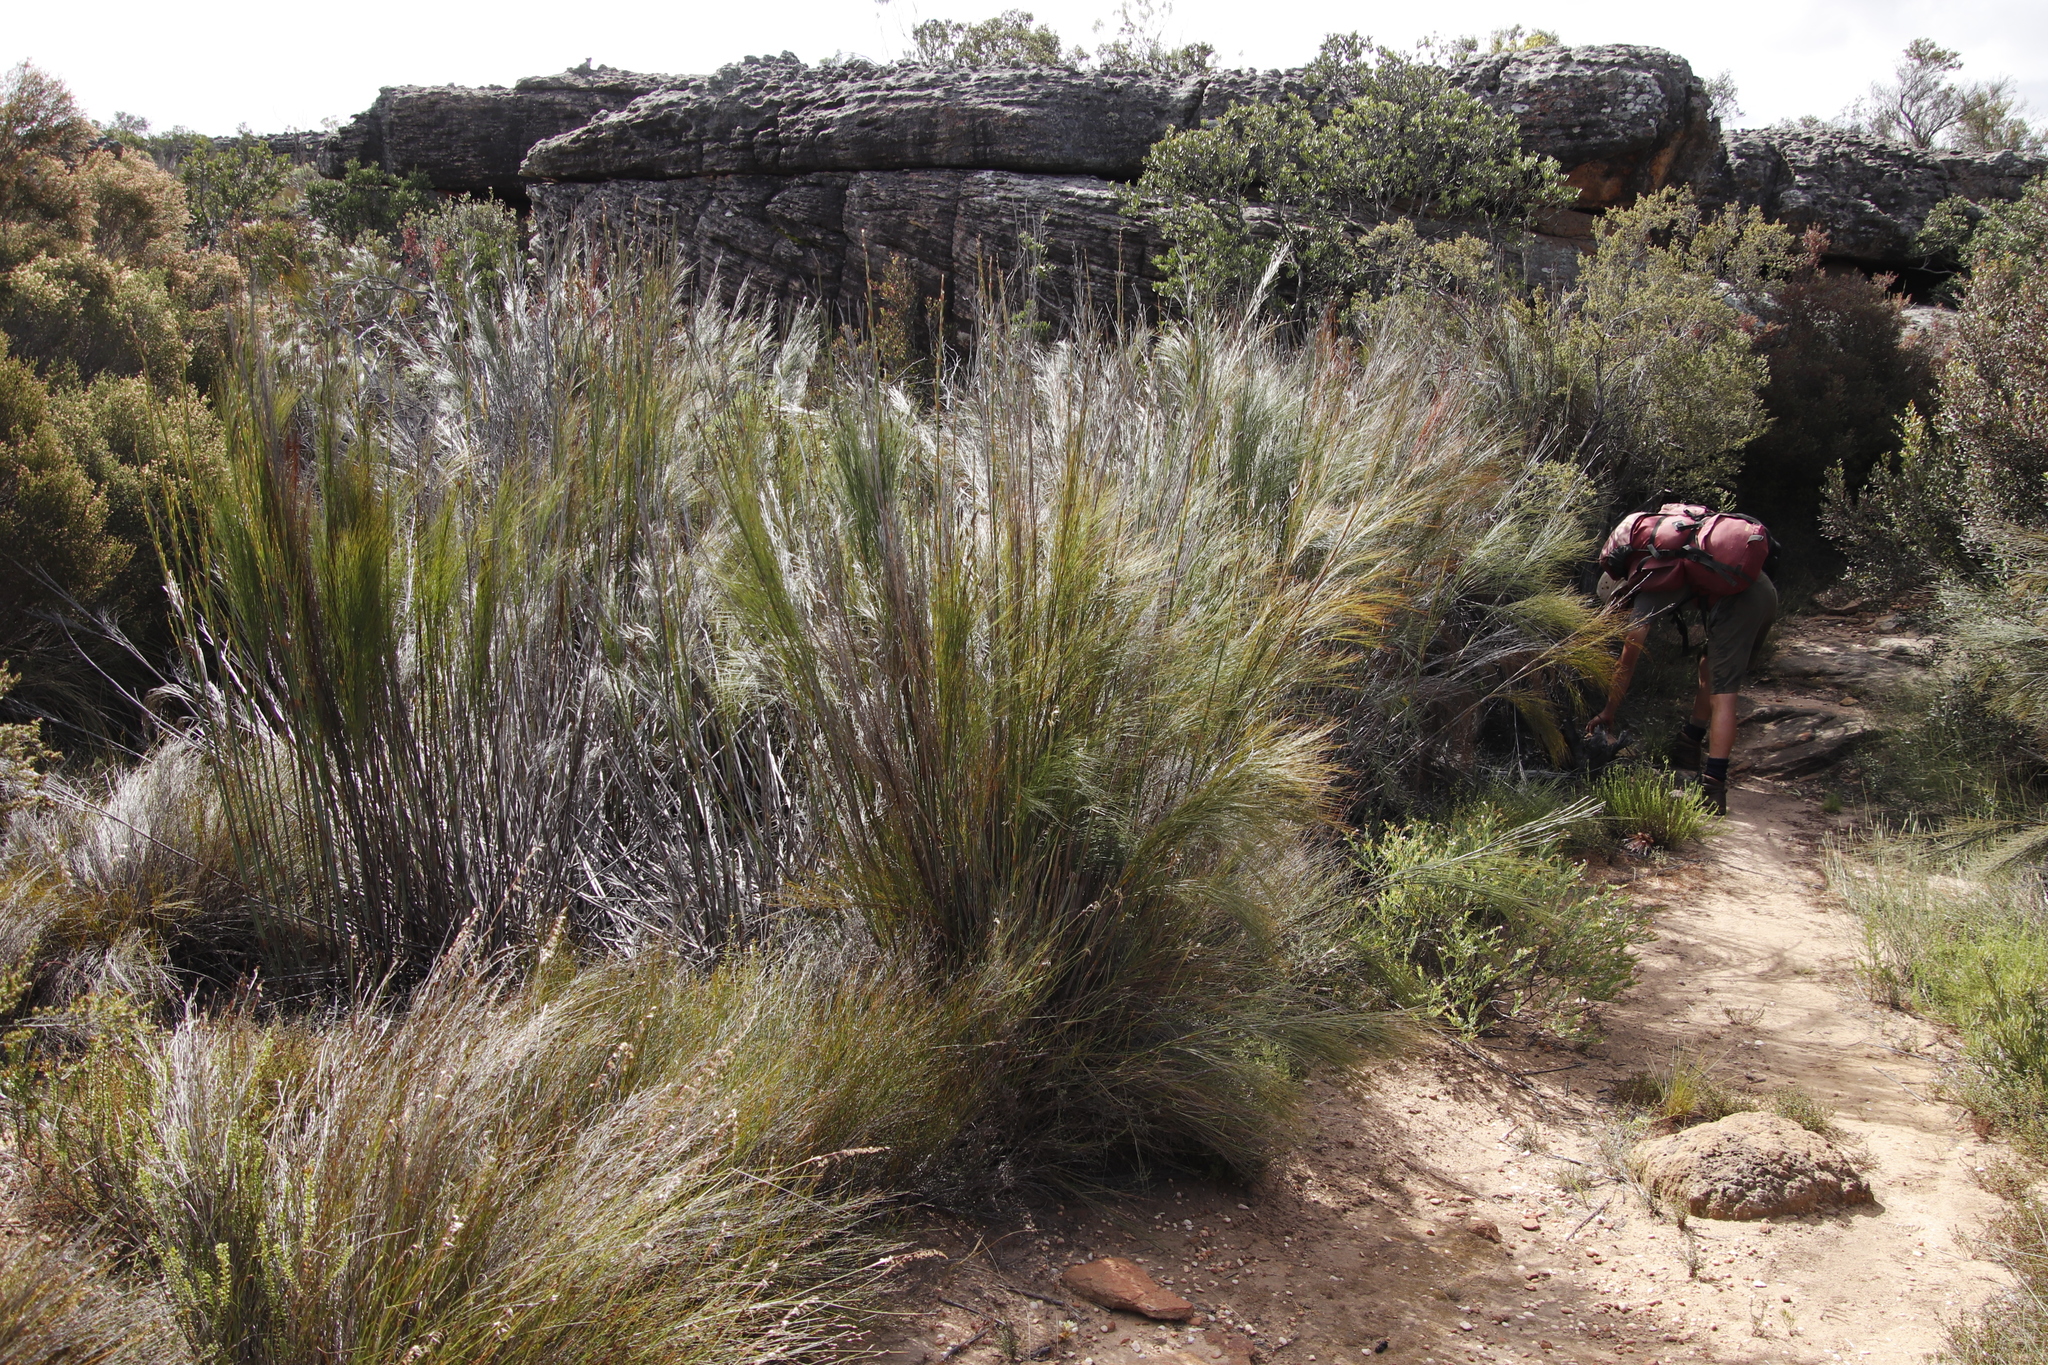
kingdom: Plantae
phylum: Tracheophyta
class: Liliopsida
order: Poales
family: Restionaceae
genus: Cannomois
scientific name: Cannomois robusta
